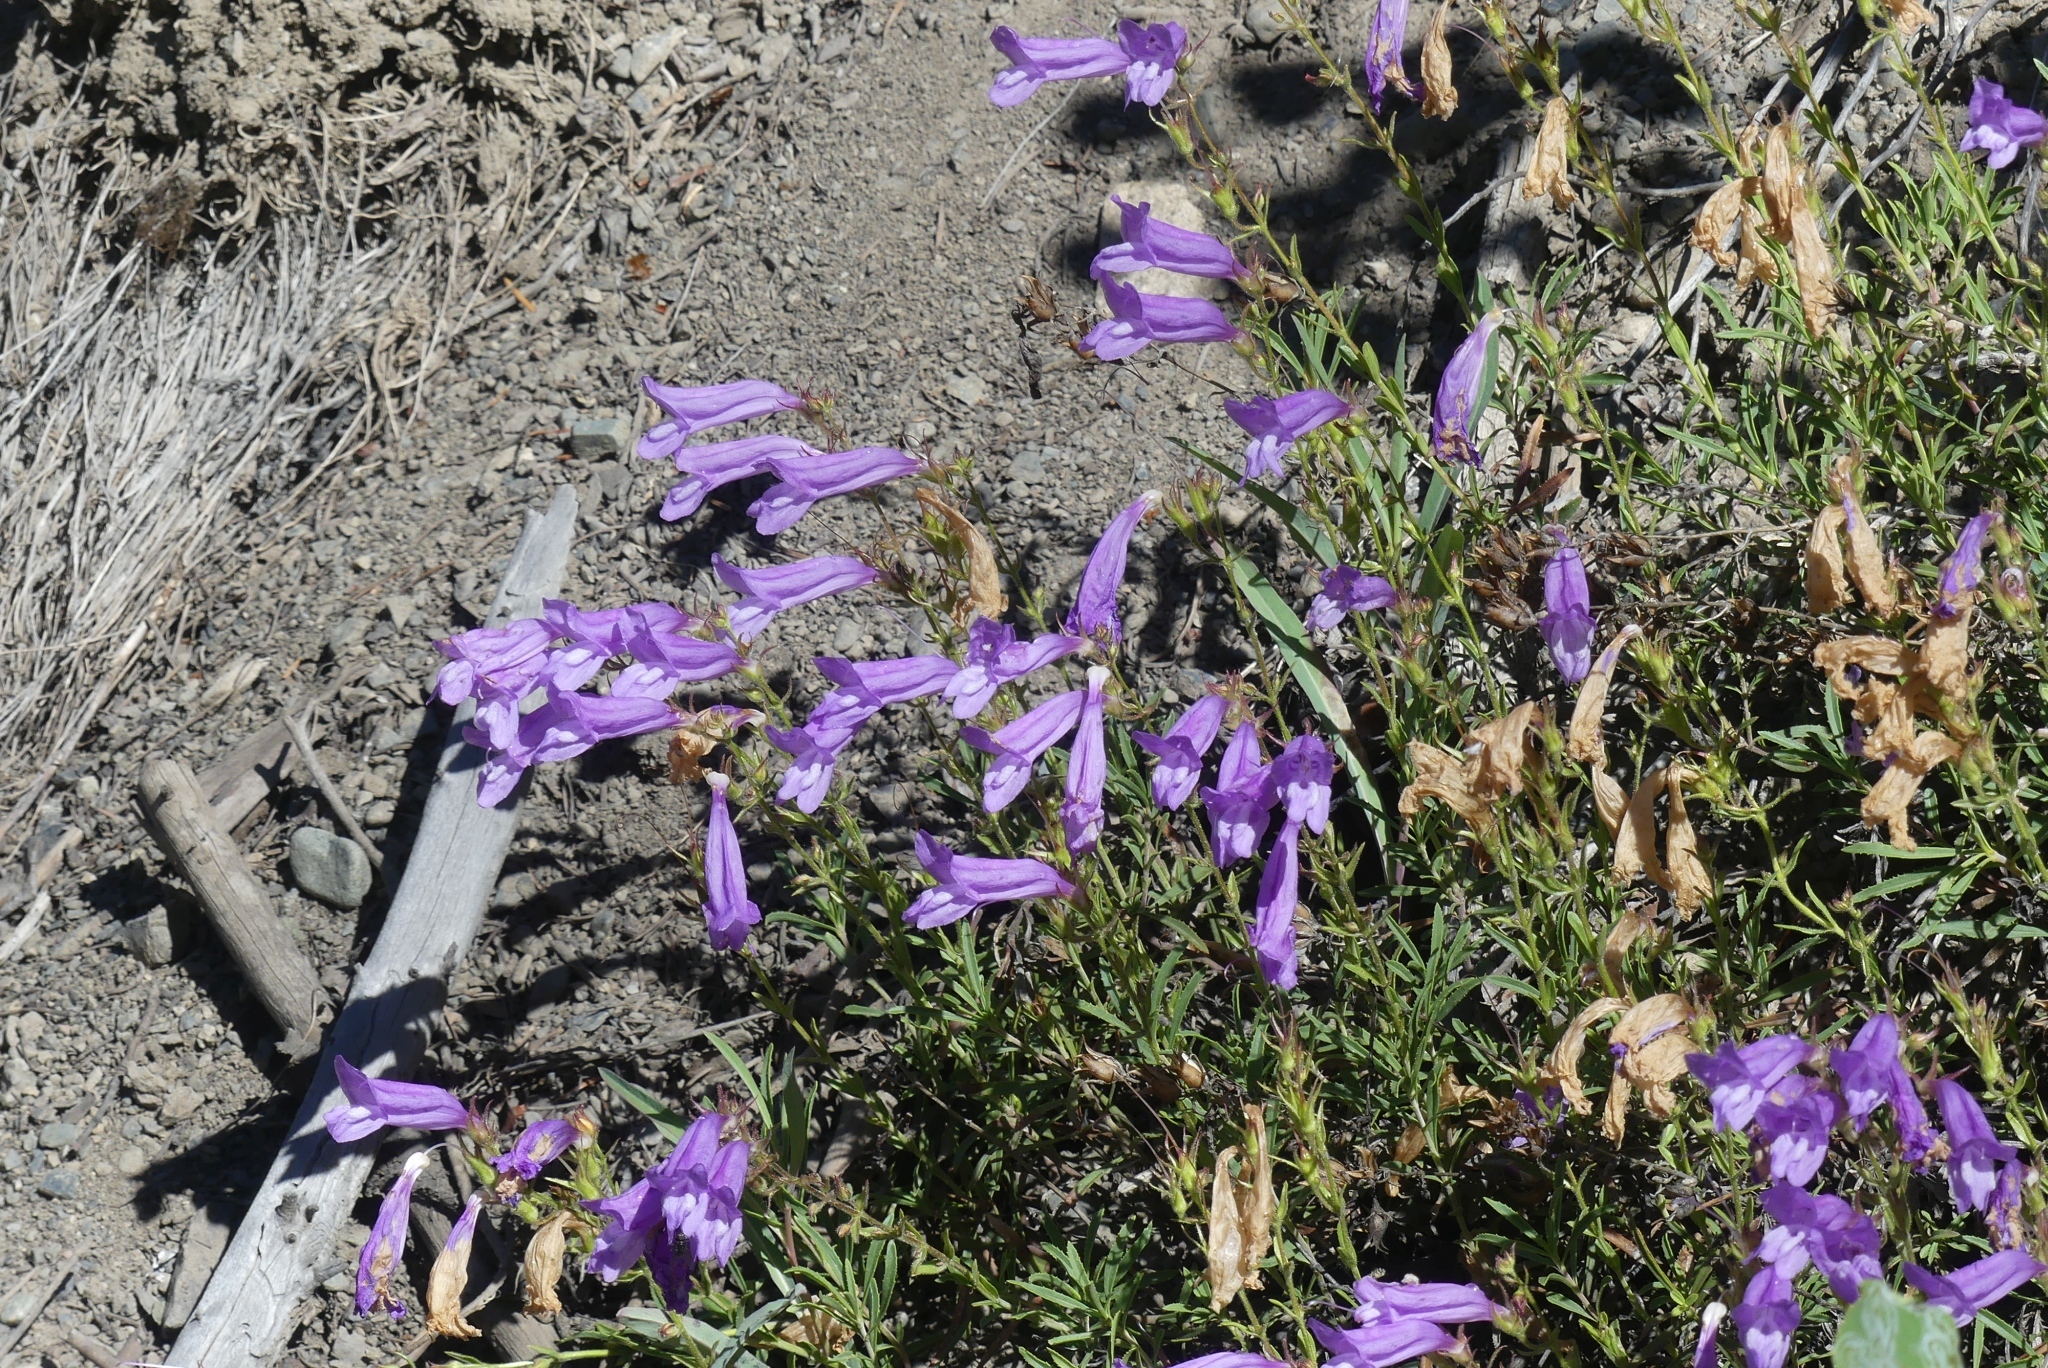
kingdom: Plantae
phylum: Tracheophyta
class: Magnoliopsida
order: Lamiales
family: Plantaginaceae
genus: Penstemon
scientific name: Penstemon fruticosus
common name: Bush penstemon
